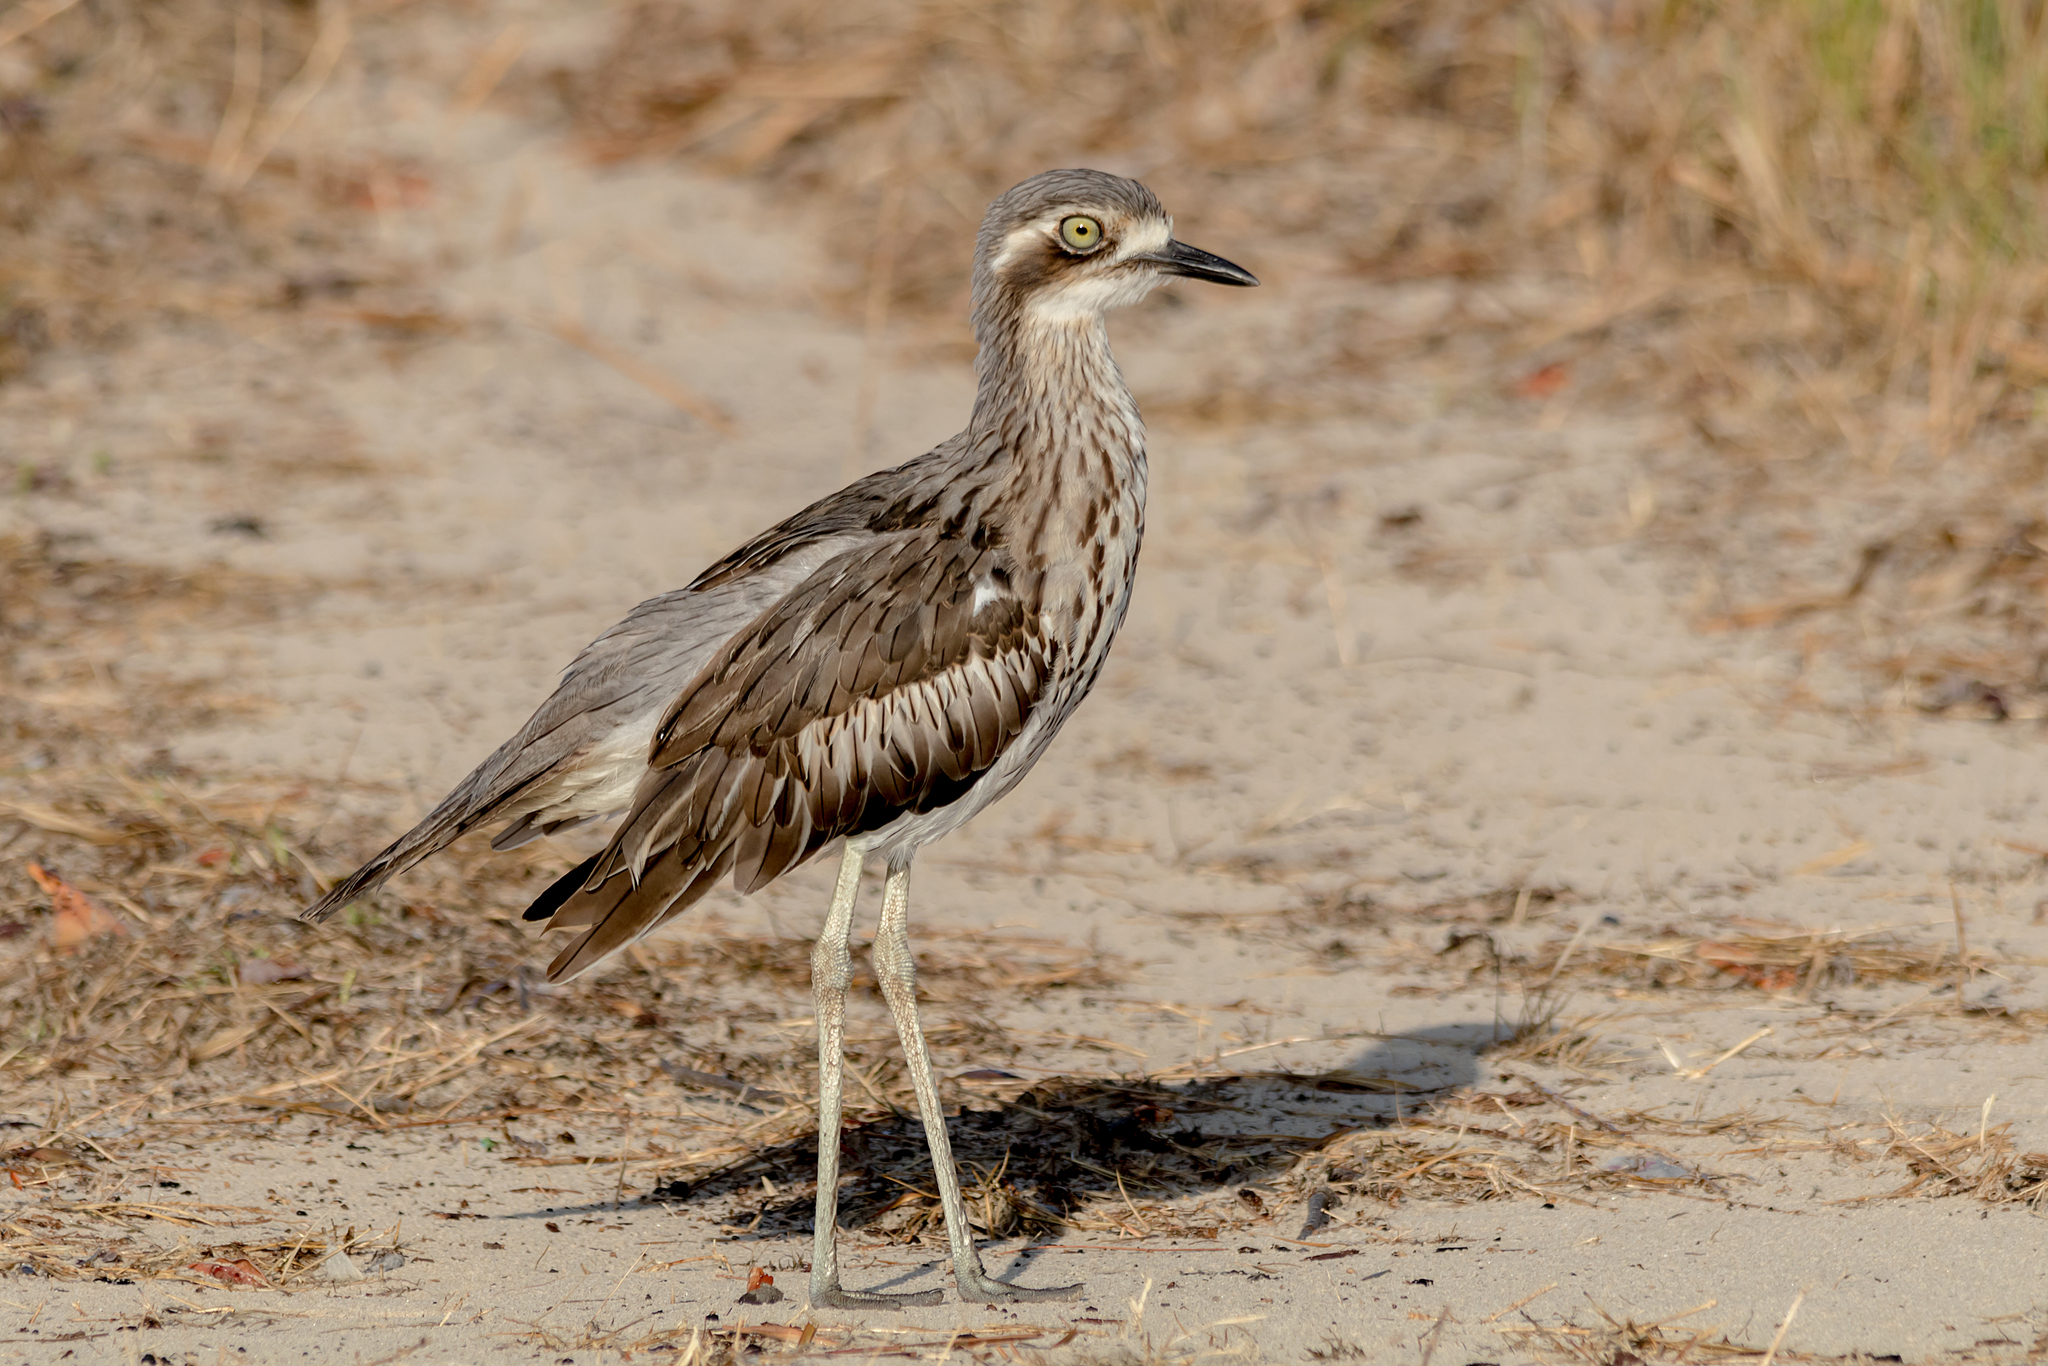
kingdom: Animalia
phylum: Chordata
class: Aves
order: Charadriiformes
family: Burhinidae
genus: Burhinus
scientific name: Burhinus grallarius
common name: Bush stone-curlew
